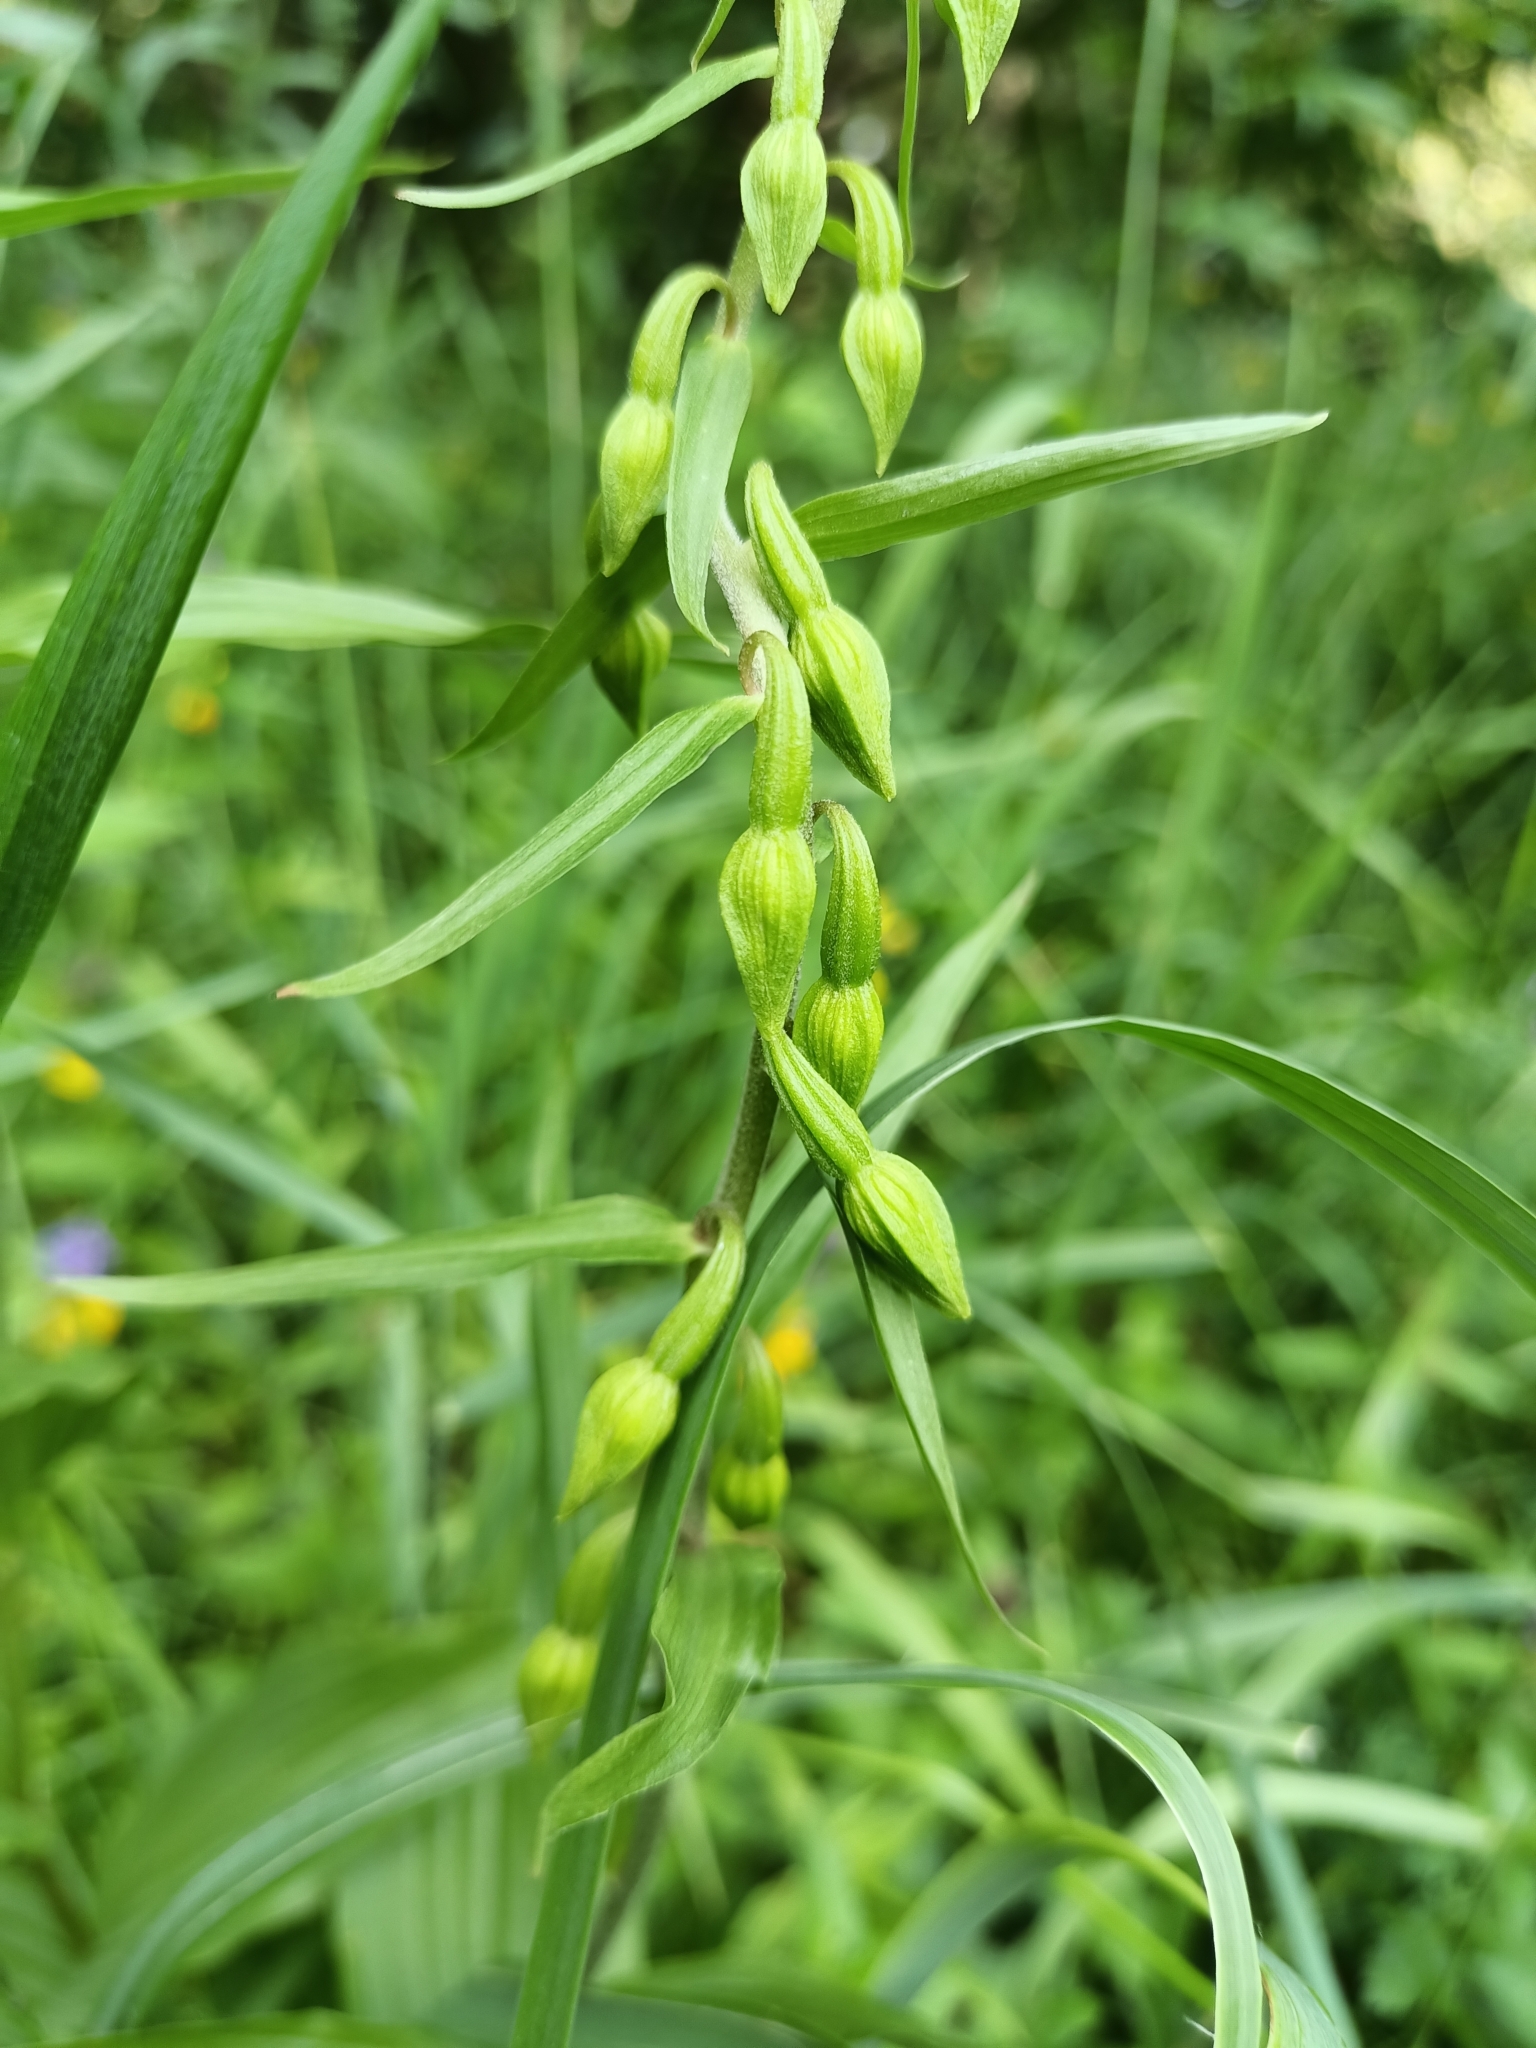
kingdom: Plantae
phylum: Tracheophyta
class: Liliopsida
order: Asparagales
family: Orchidaceae
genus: Epipactis
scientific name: Epipactis helleborine
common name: Broad-leaved helleborine
